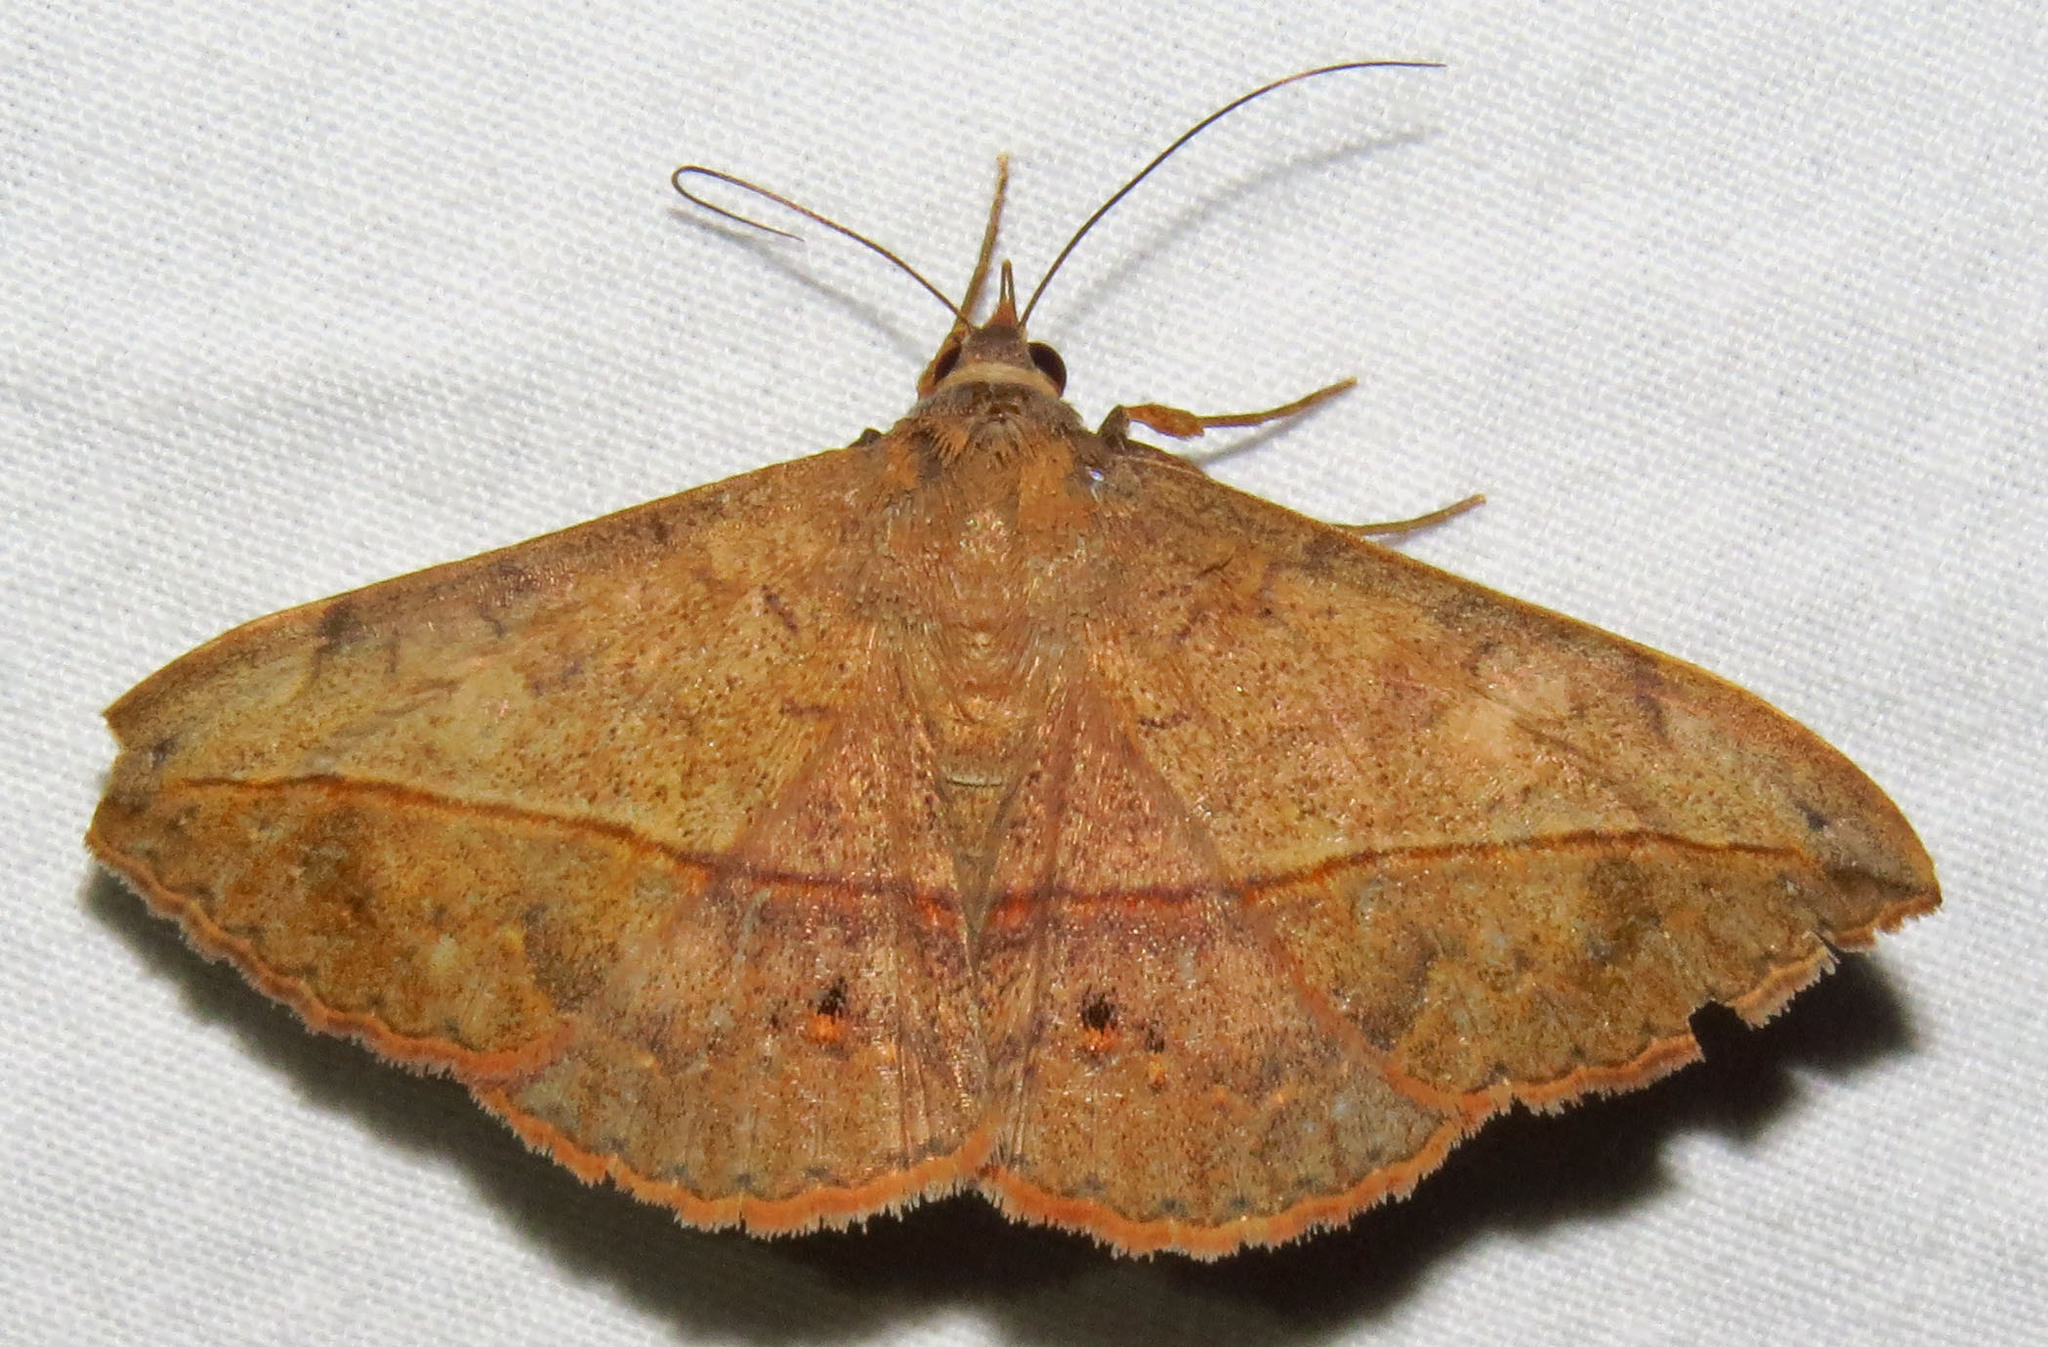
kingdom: Animalia
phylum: Arthropoda
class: Insecta
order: Lepidoptera
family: Erebidae
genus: Anticarsia
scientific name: Anticarsia gemmatalis
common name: Cutworm moth
